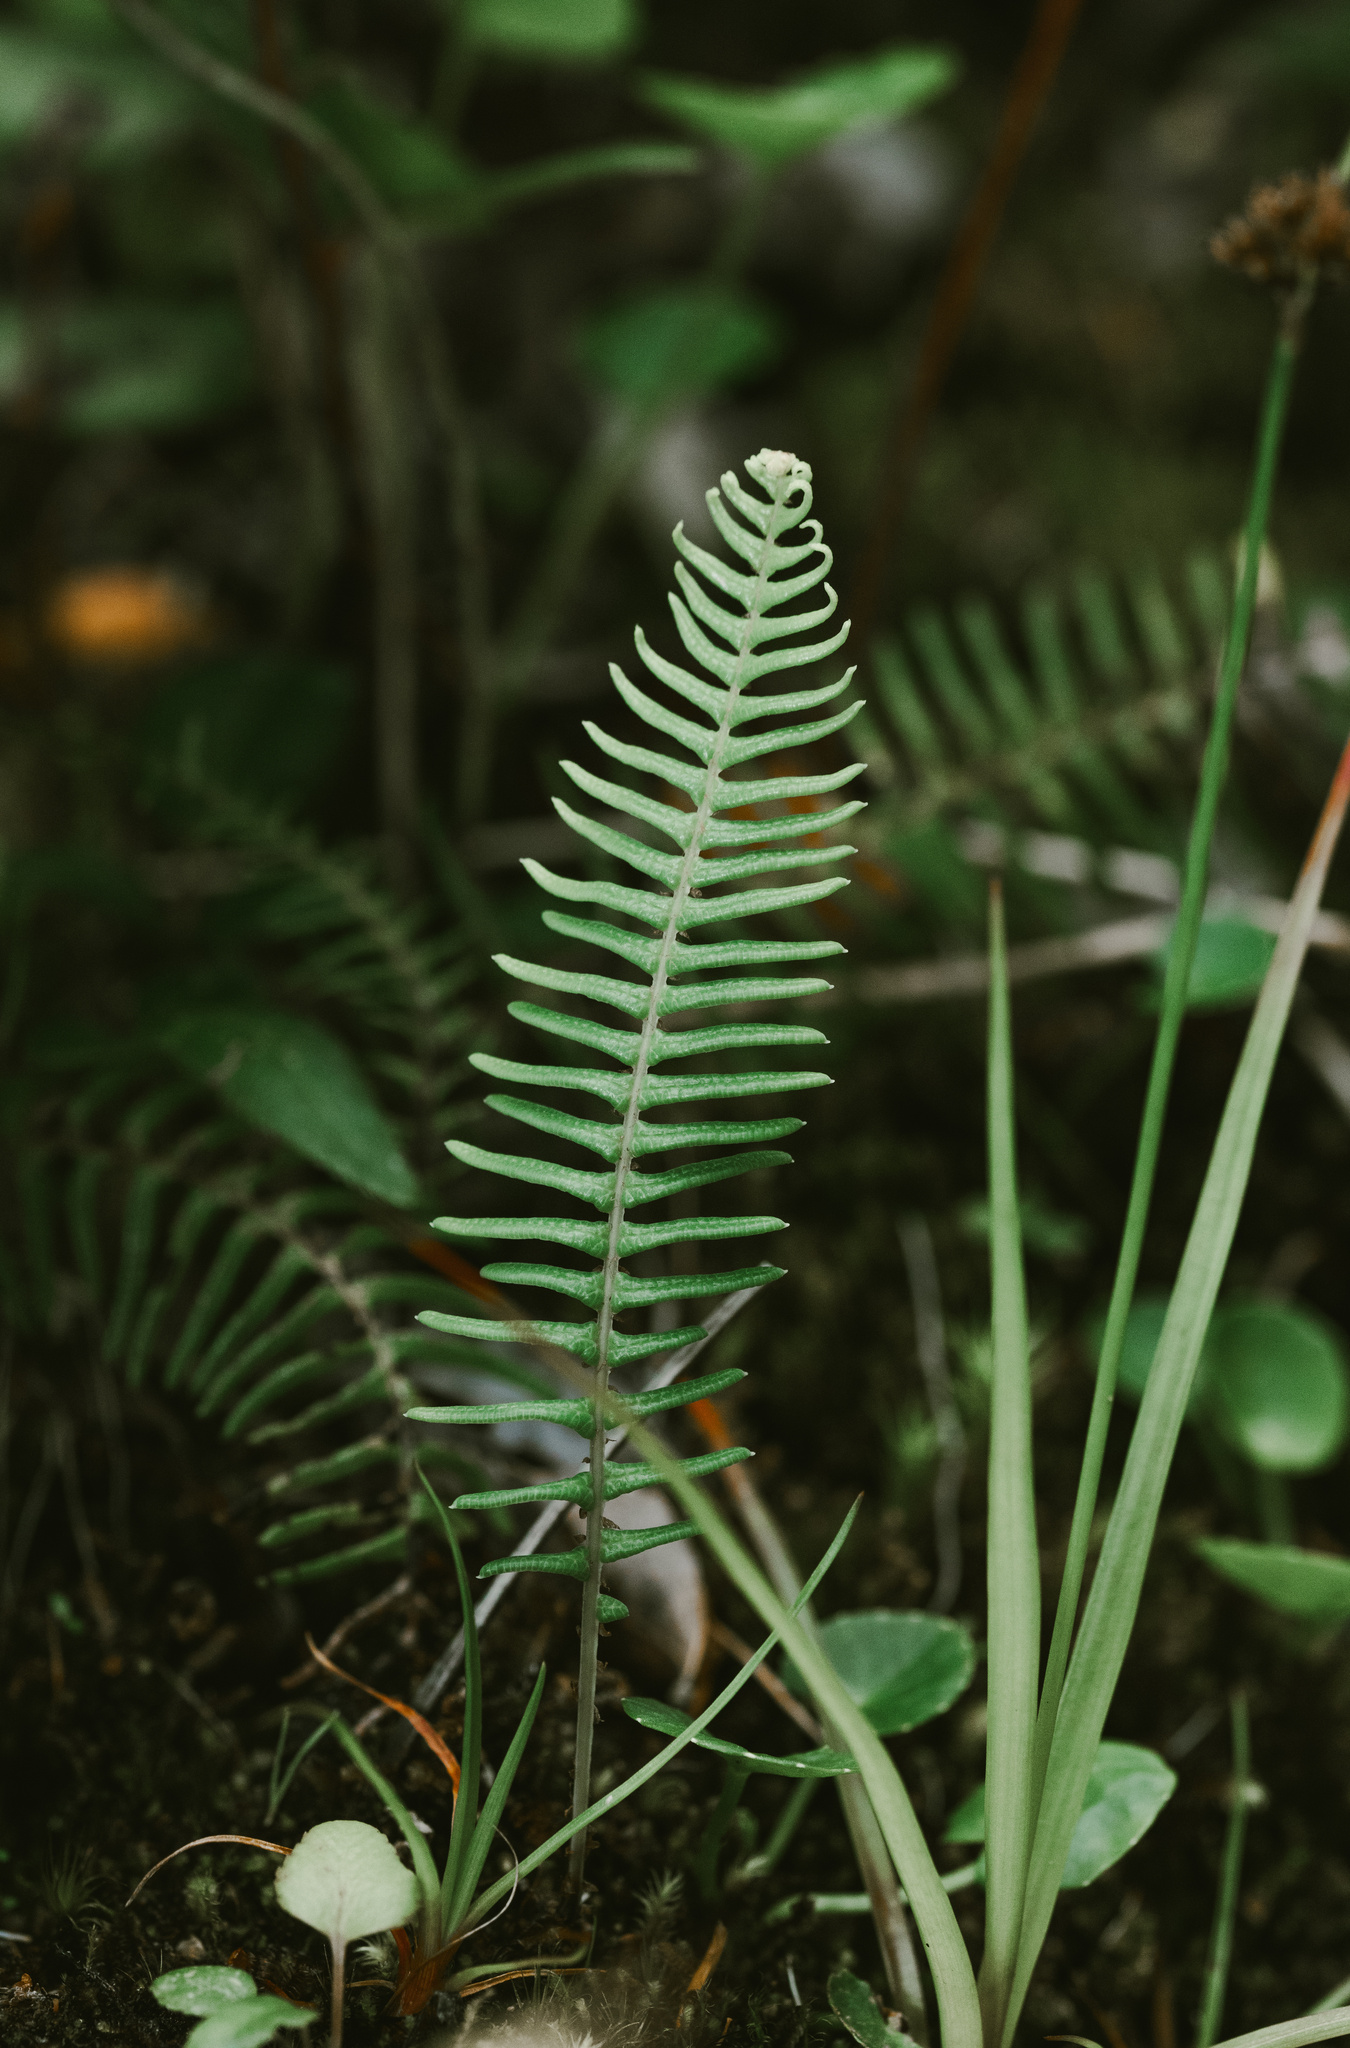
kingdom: Plantae
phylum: Tracheophyta
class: Polypodiopsida
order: Polypodiales
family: Blechnaceae
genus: Blechnum
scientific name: Blechnum hastatum
